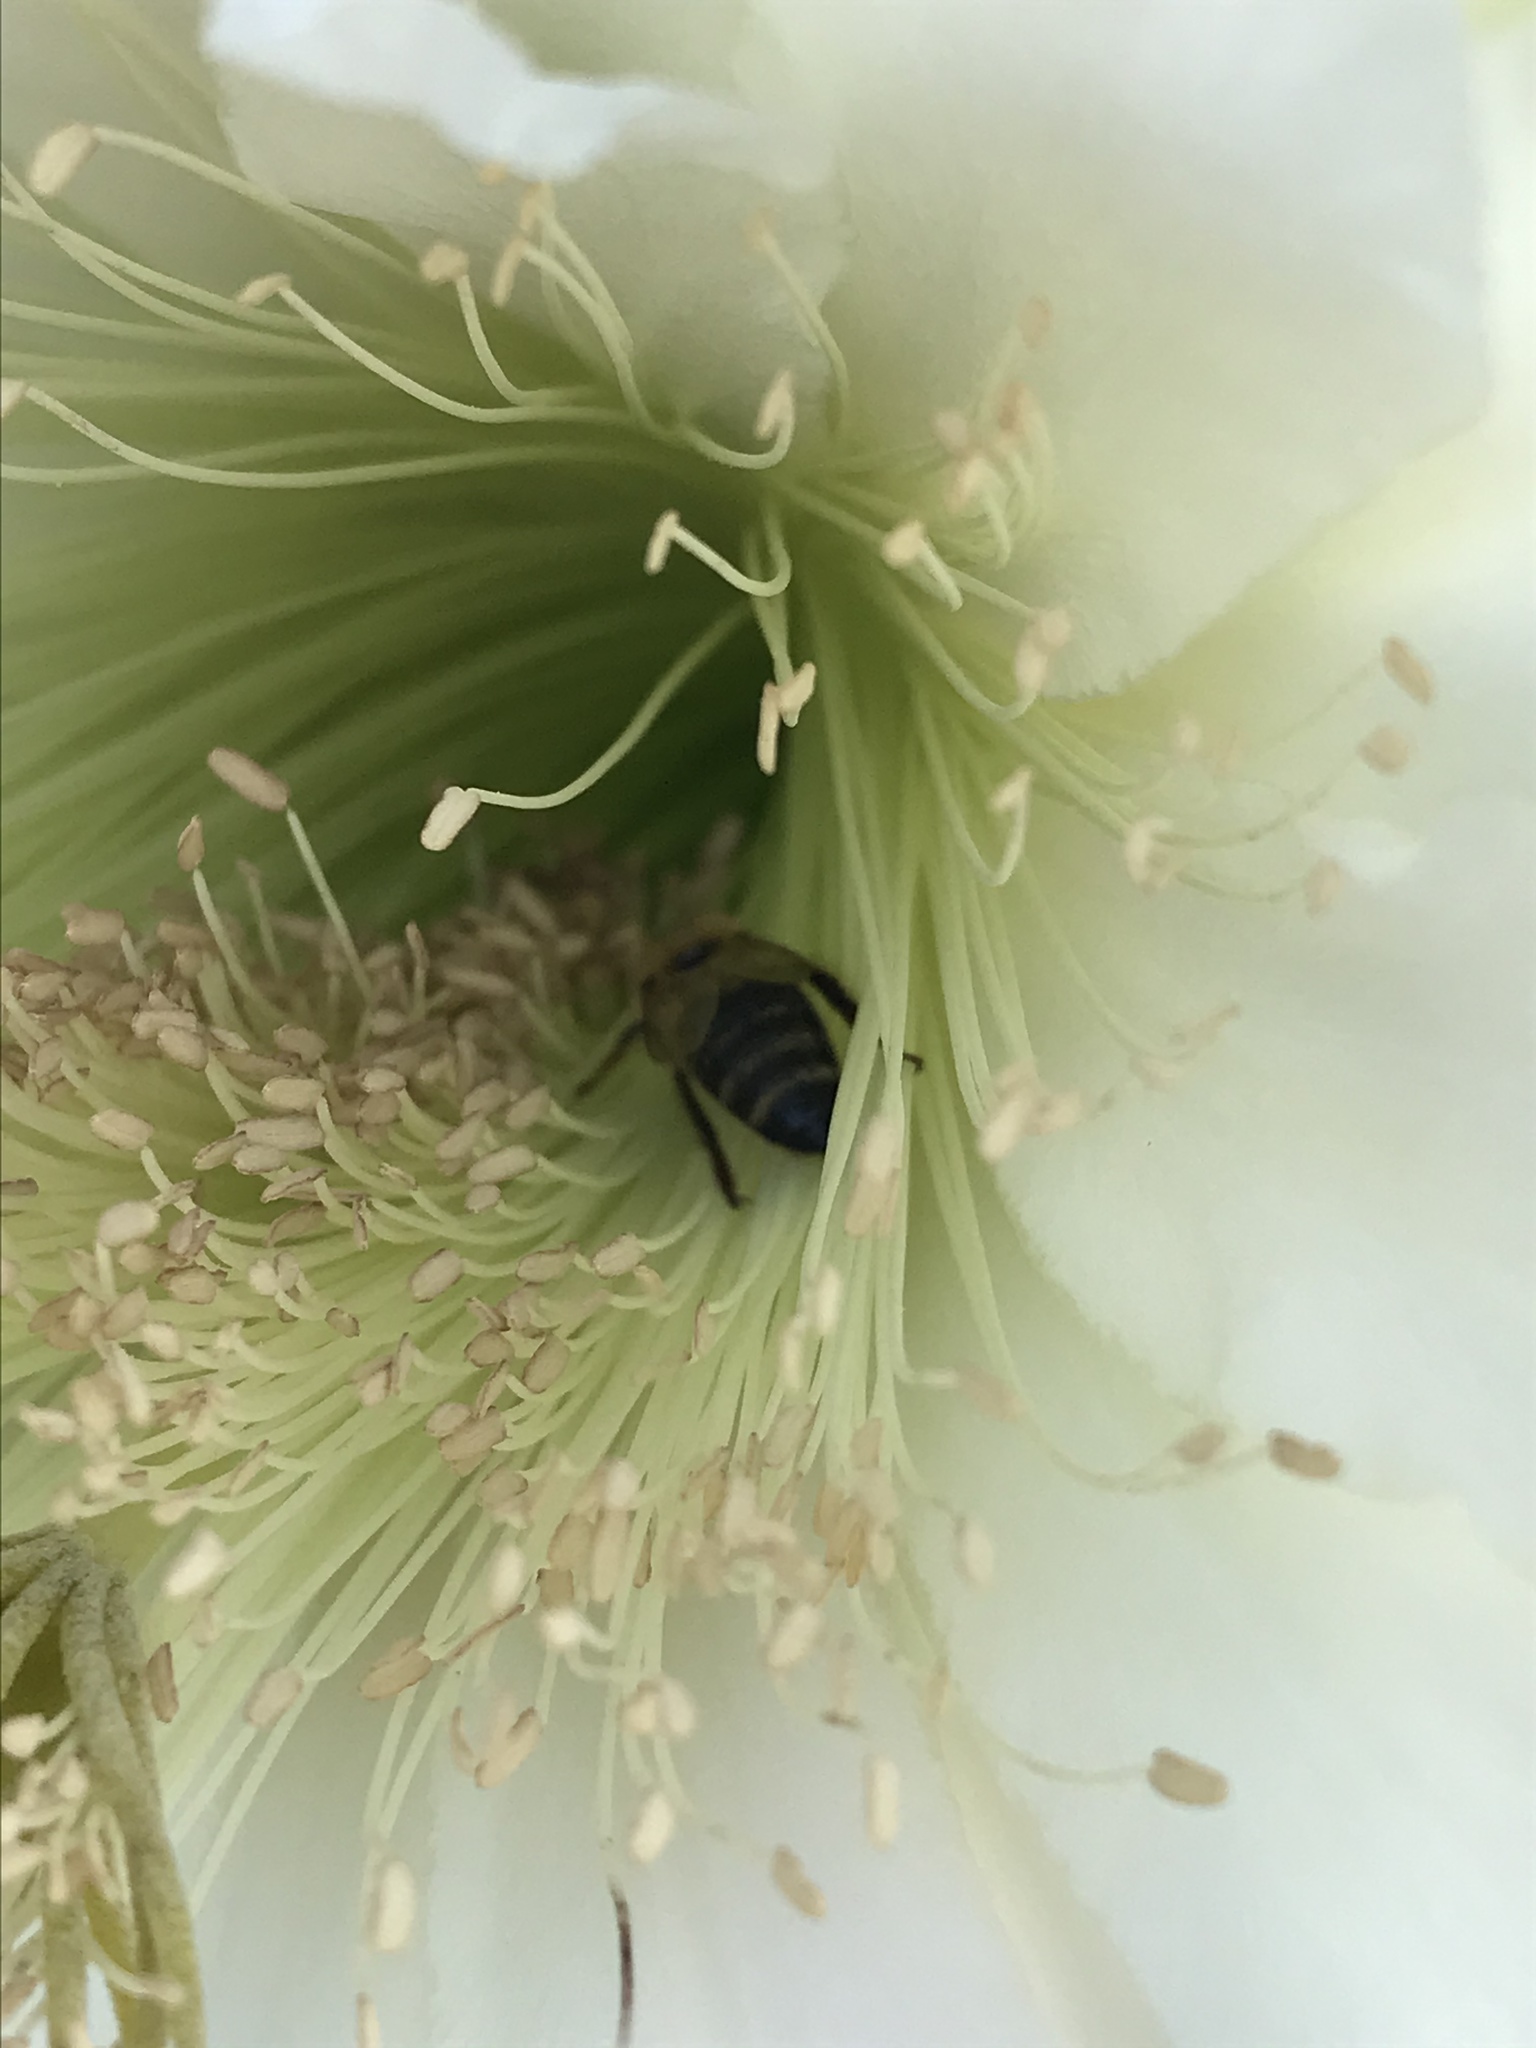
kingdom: Animalia
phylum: Arthropoda
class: Insecta
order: Hymenoptera
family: Apidae
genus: Apis
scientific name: Apis mellifera
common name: Honey bee
